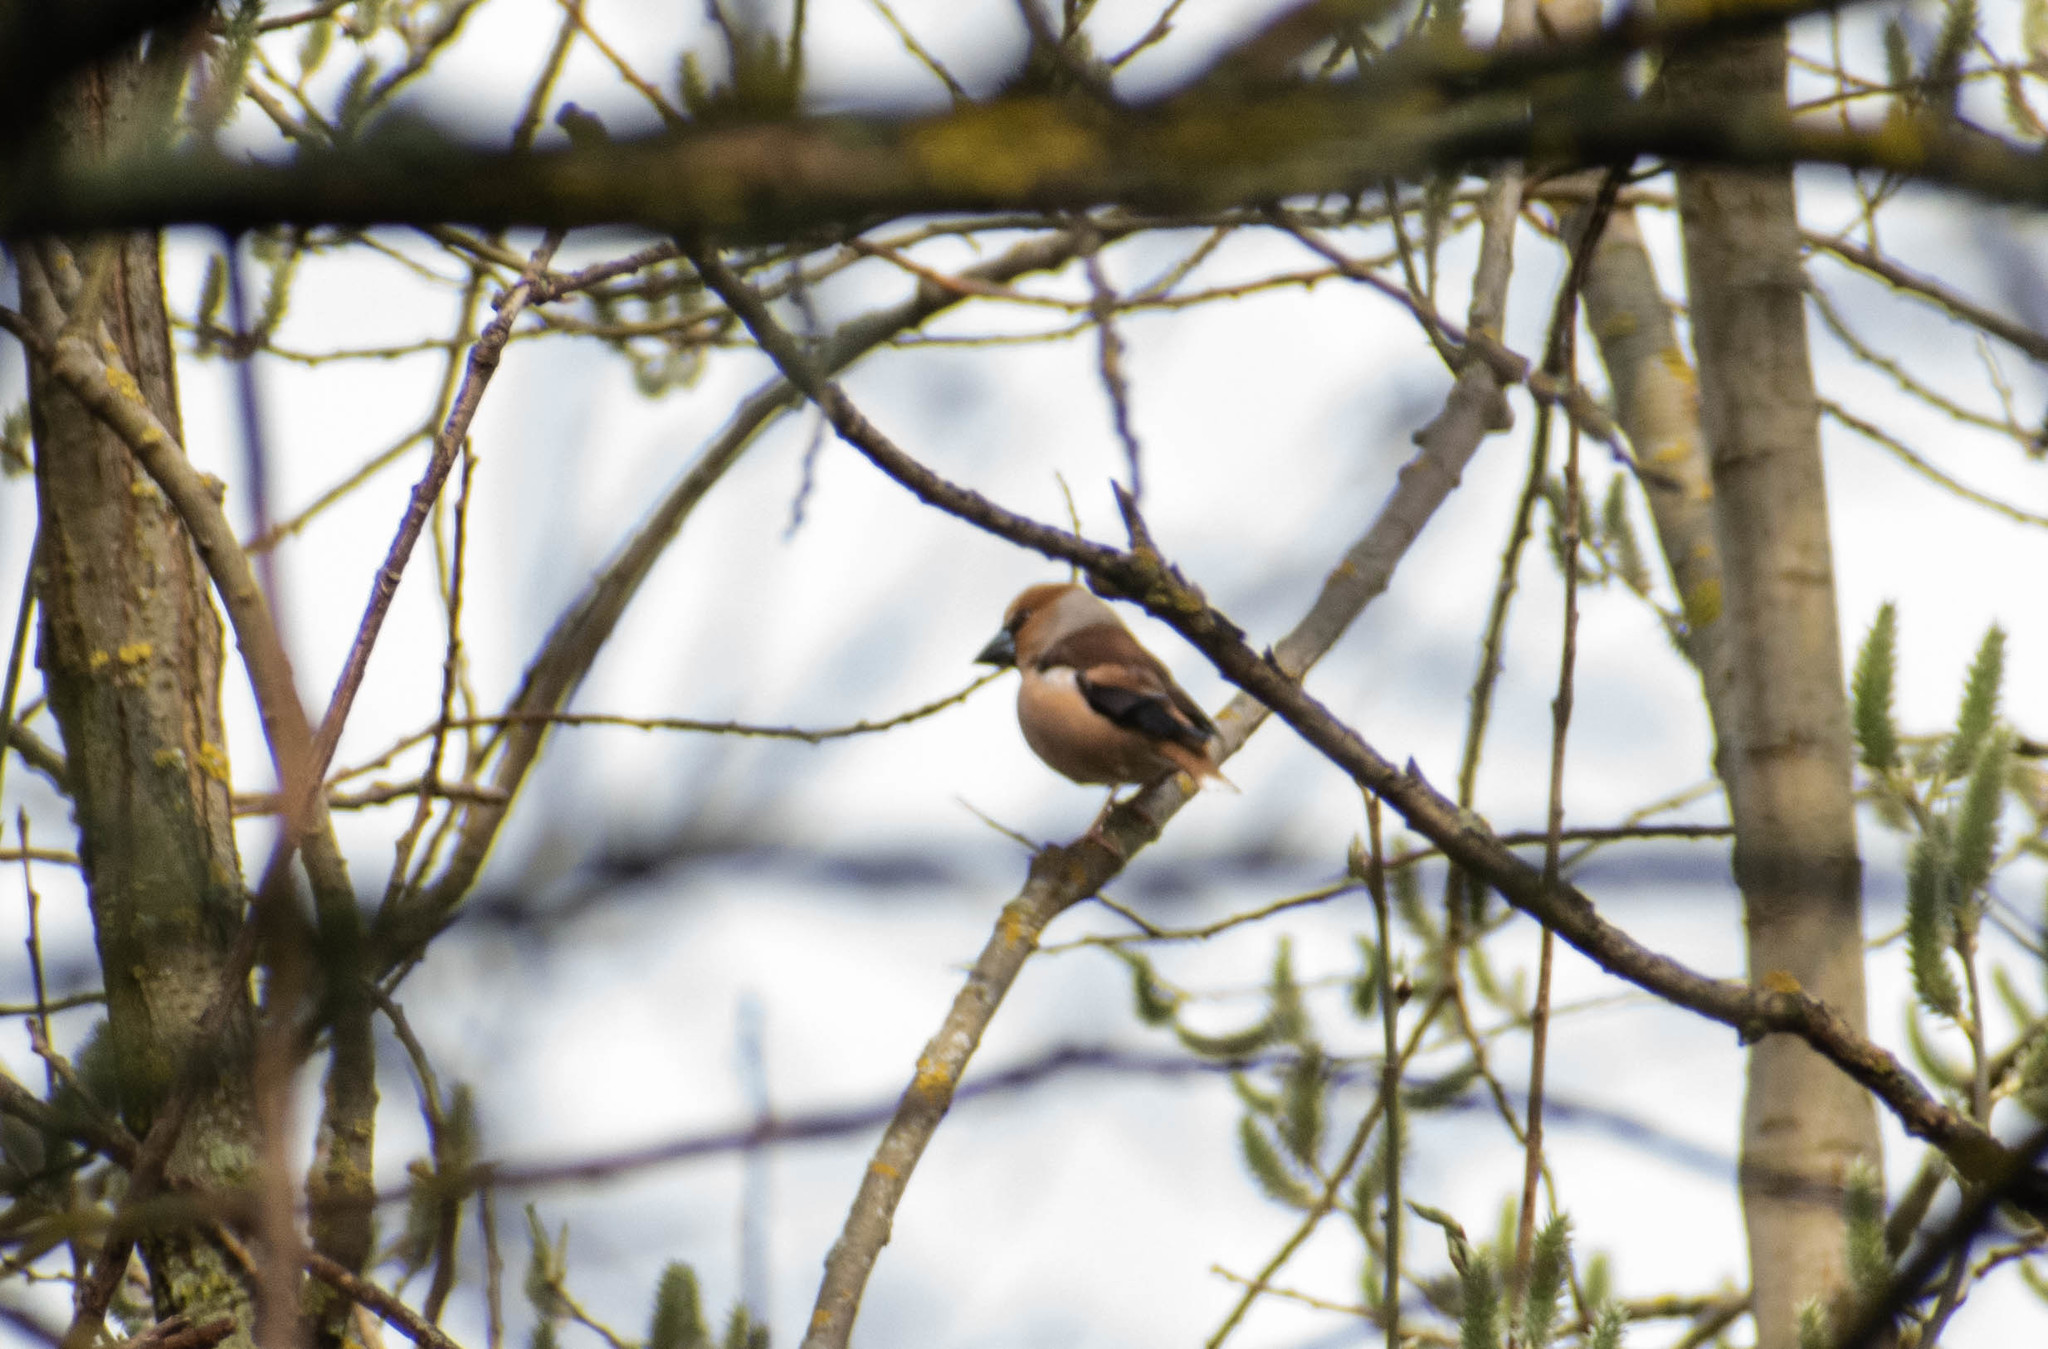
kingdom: Animalia
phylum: Chordata
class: Aves
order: Passeriformes
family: Fringillidae
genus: Coccothraustes
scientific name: Coccothraustes coccothraustes
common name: Hawfinch
